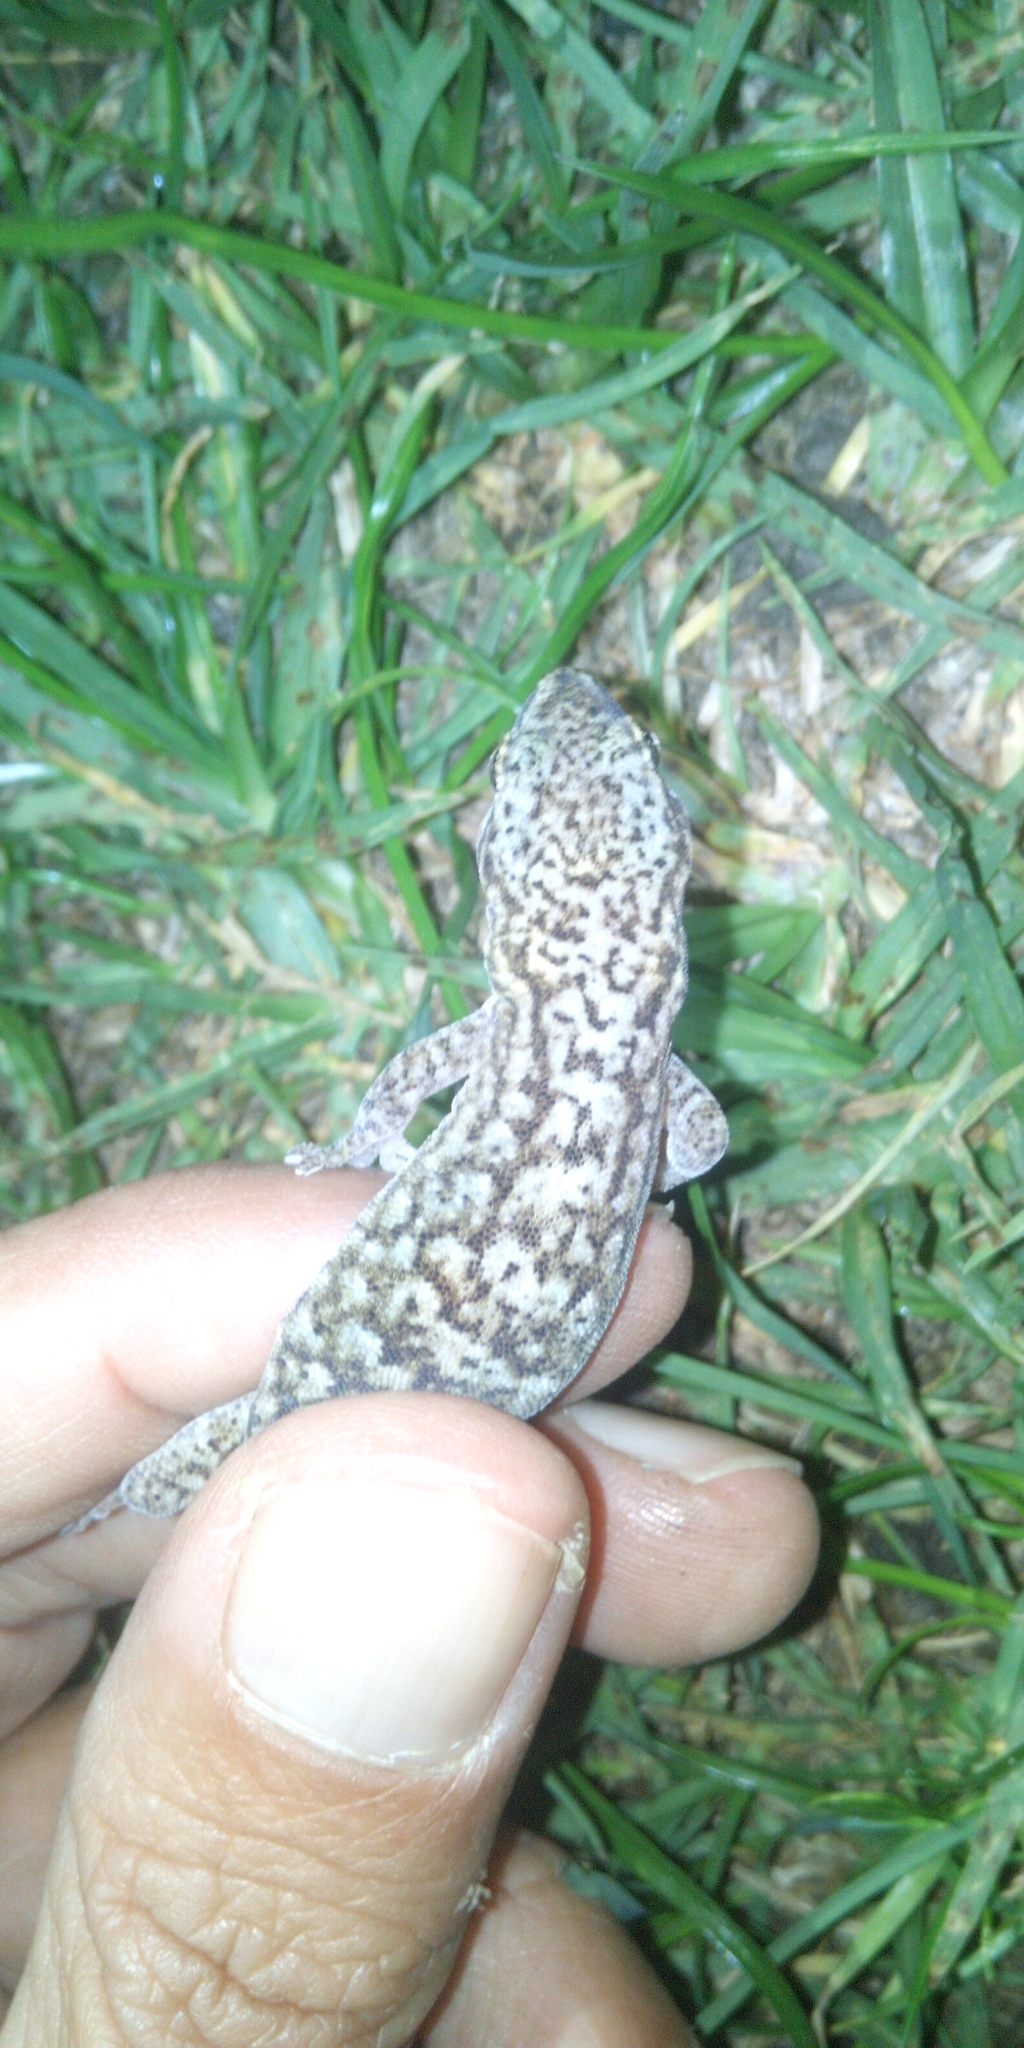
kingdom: Animalia
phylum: Chordata
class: Squamata
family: Gekkonidae
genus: Afrogecko
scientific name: Afrogecko porphyreus
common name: Marbled leaf-toed gecko
